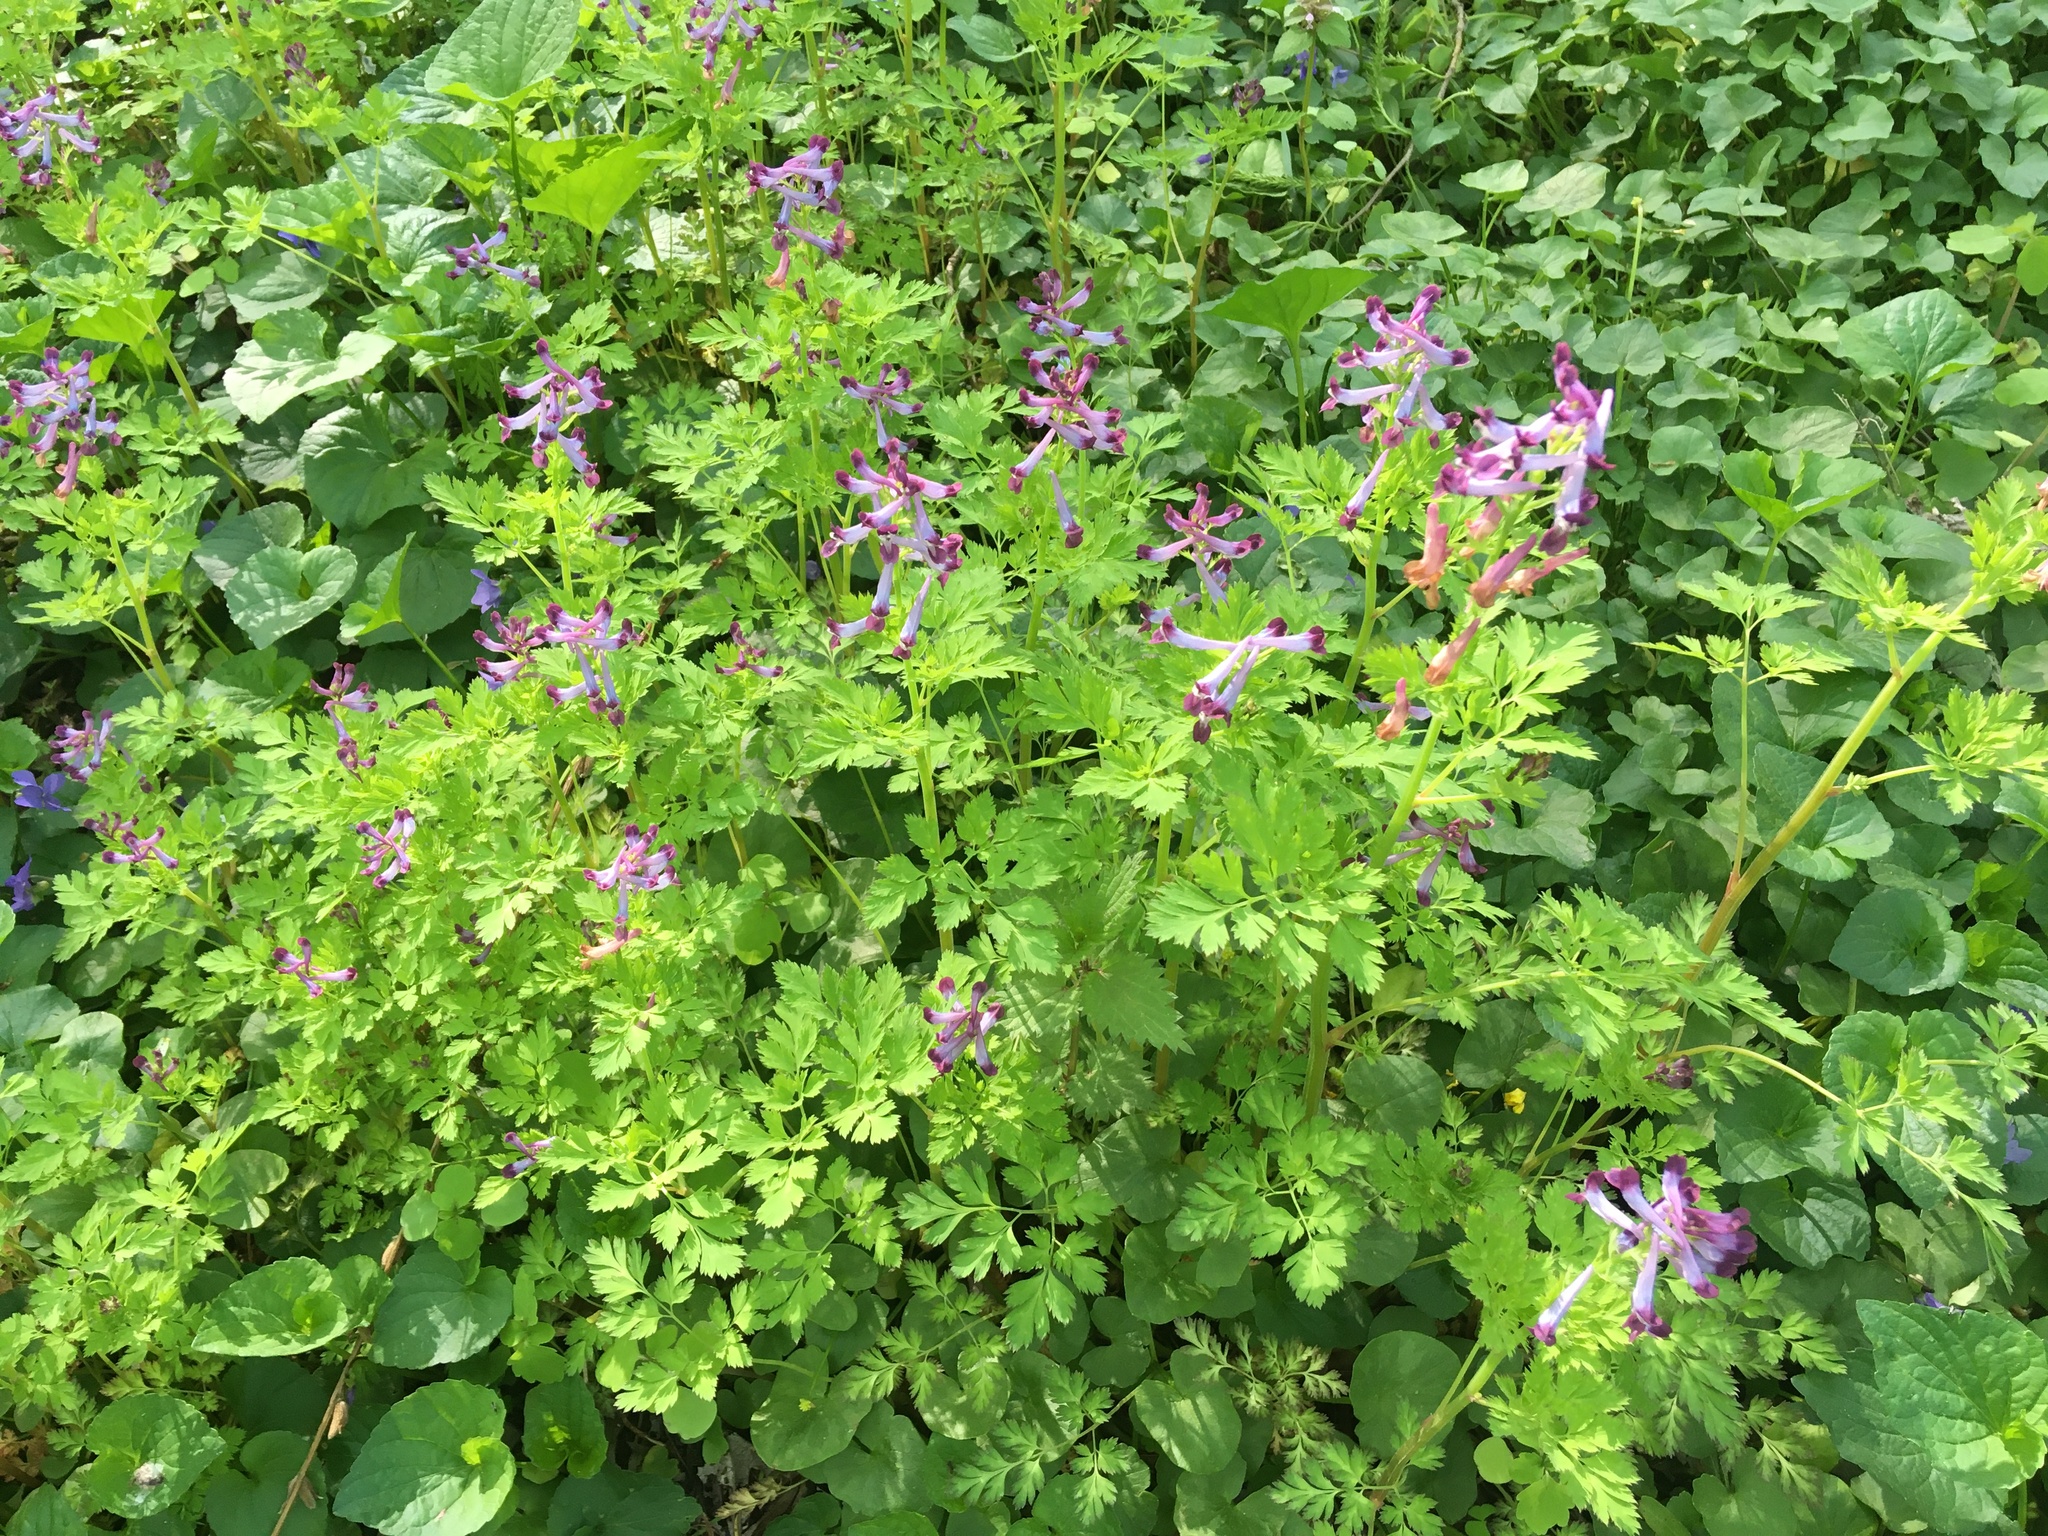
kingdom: Plantae
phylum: Tracheophyta
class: Magnoliopsida
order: Ranunculales
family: Papaveraceae
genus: Corydalis
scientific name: Corydalis incisa
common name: Incised fumewort
